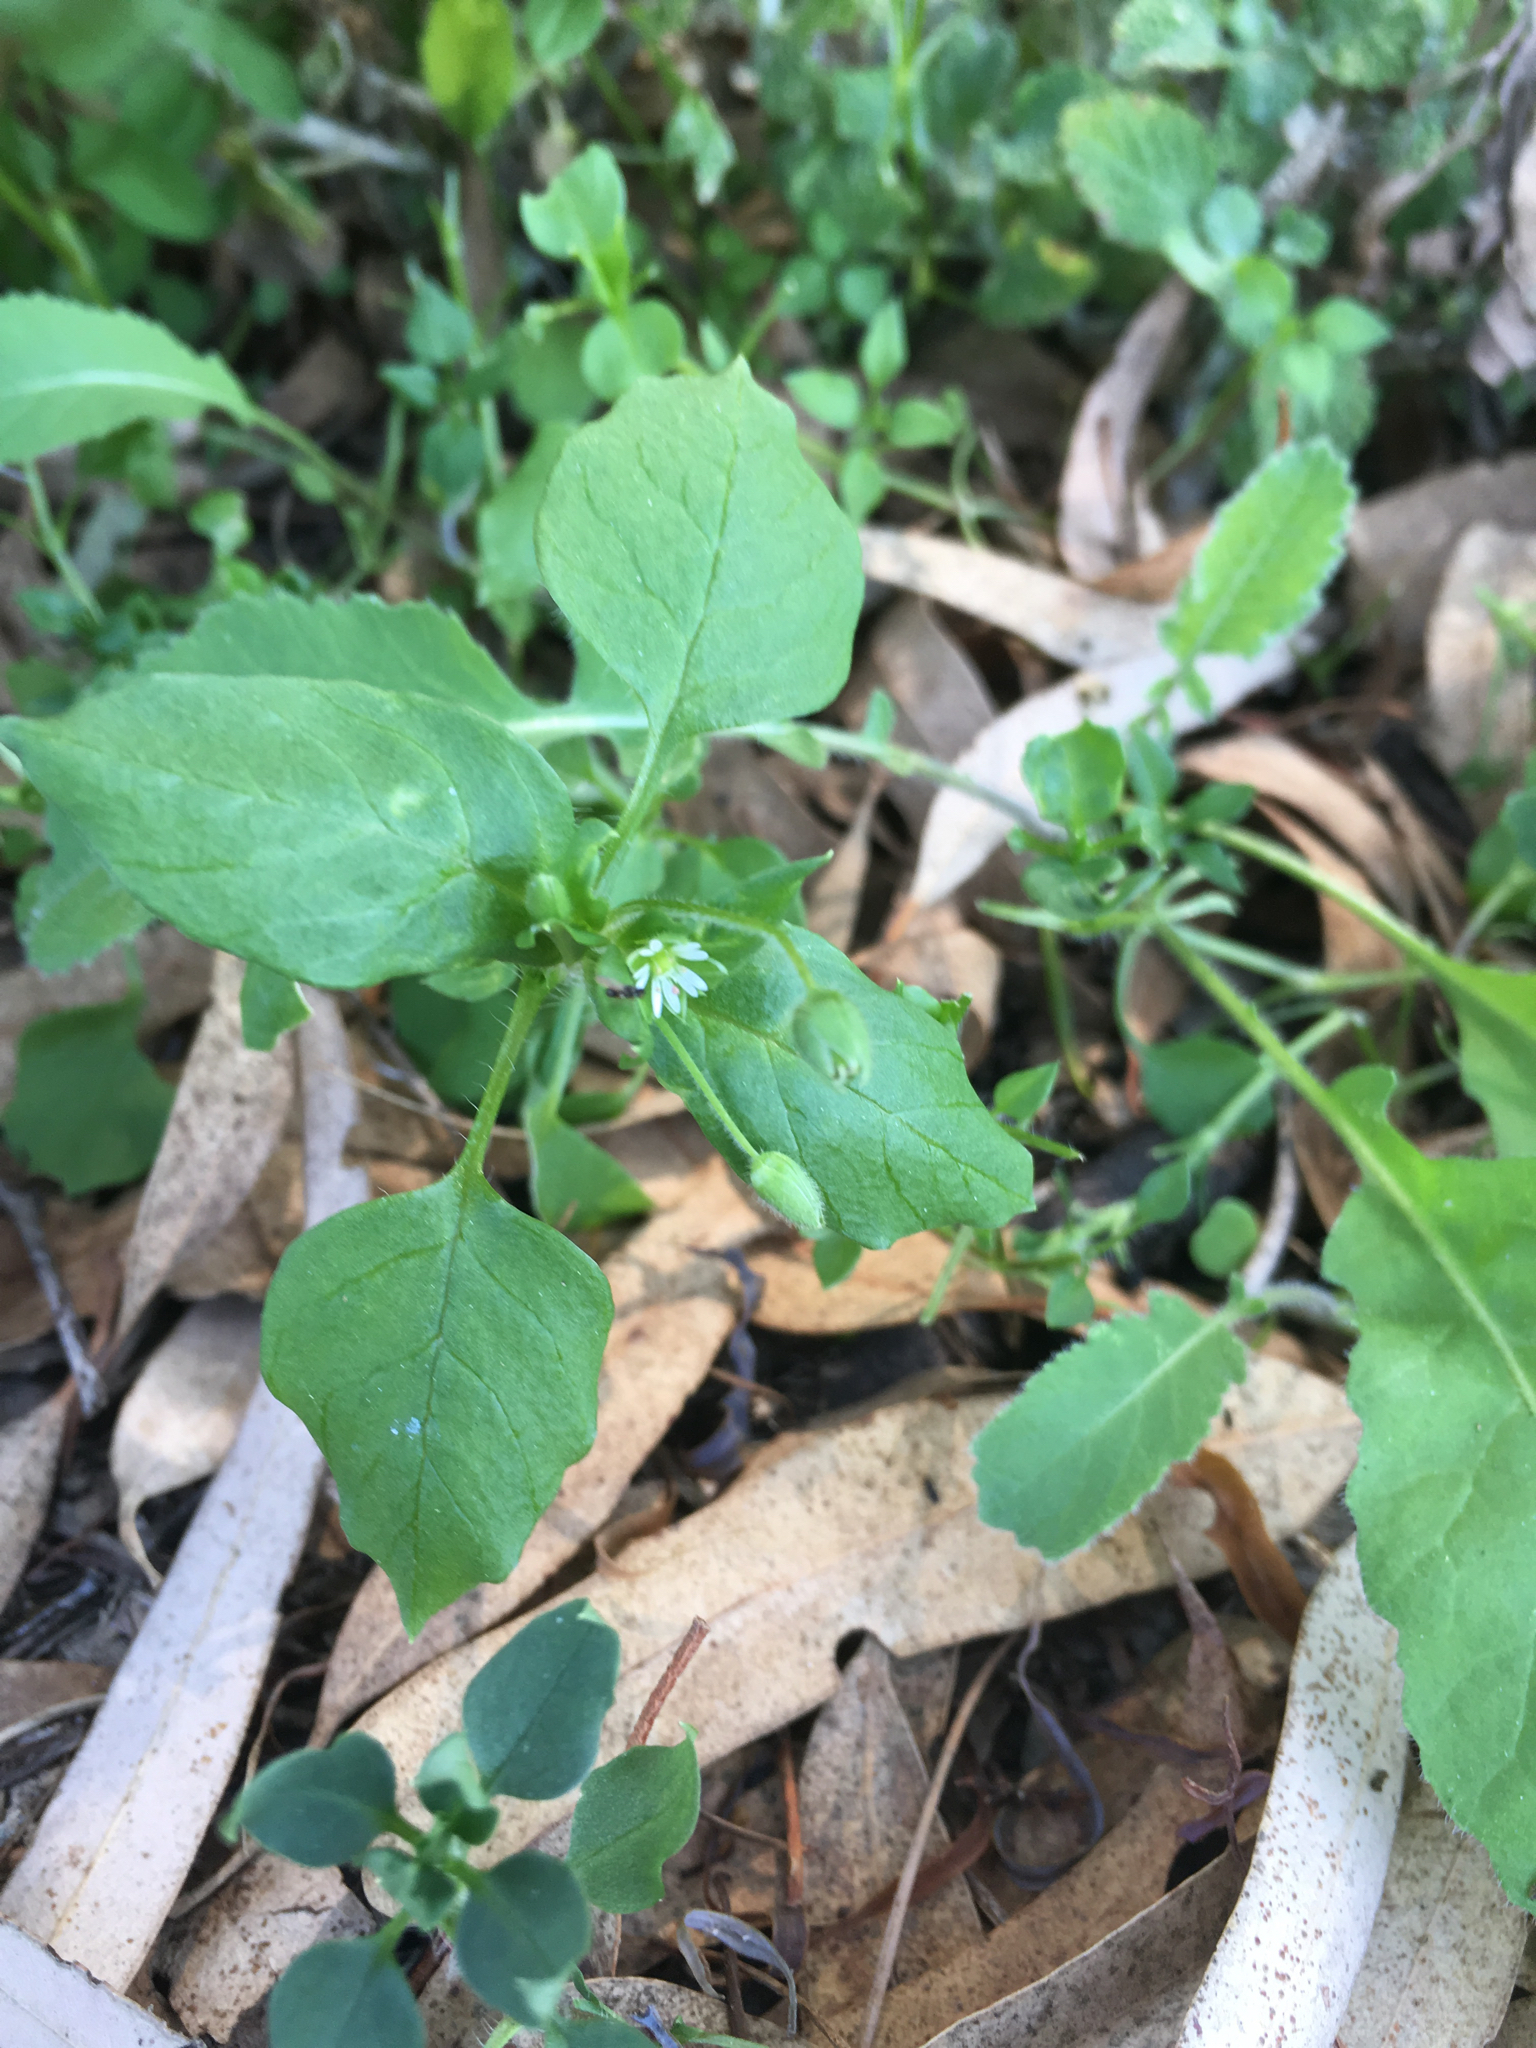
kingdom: Plantae
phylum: Tracheophyta
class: Magnoliopsida
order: Caryophyllales
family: Caryophyllaceae
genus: Stellaria
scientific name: Stellaria media
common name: Common chickweed
